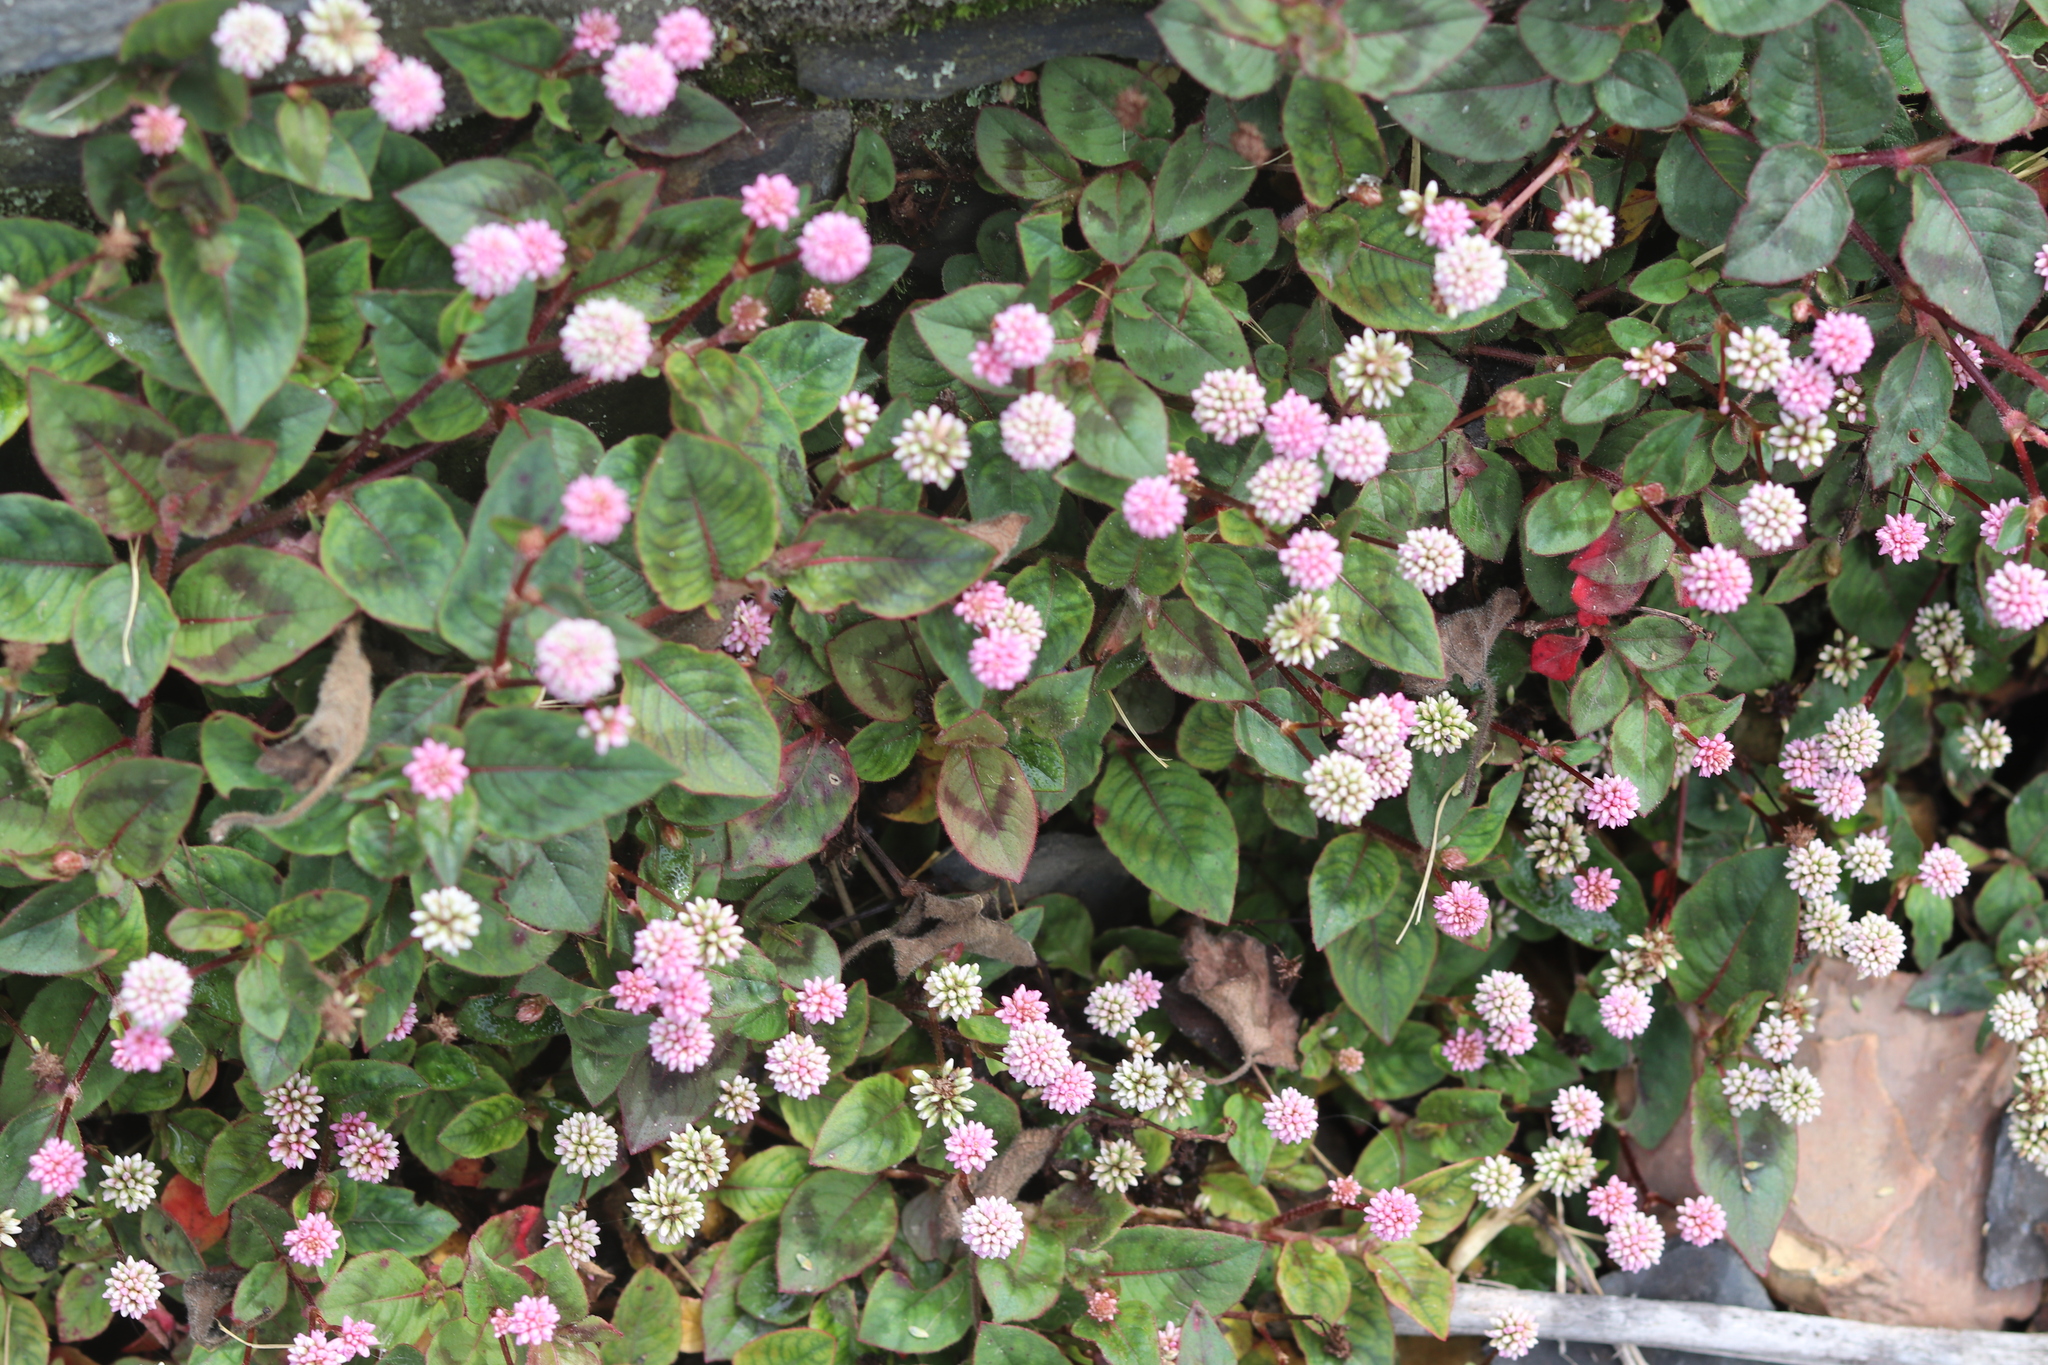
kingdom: Plantae
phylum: Tracheophyta
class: Magnoliopsida
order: Caryophyllales
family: Polygonaceae
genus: Persicaria
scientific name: Persicaria capitata
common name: Pinkhead smartweed
